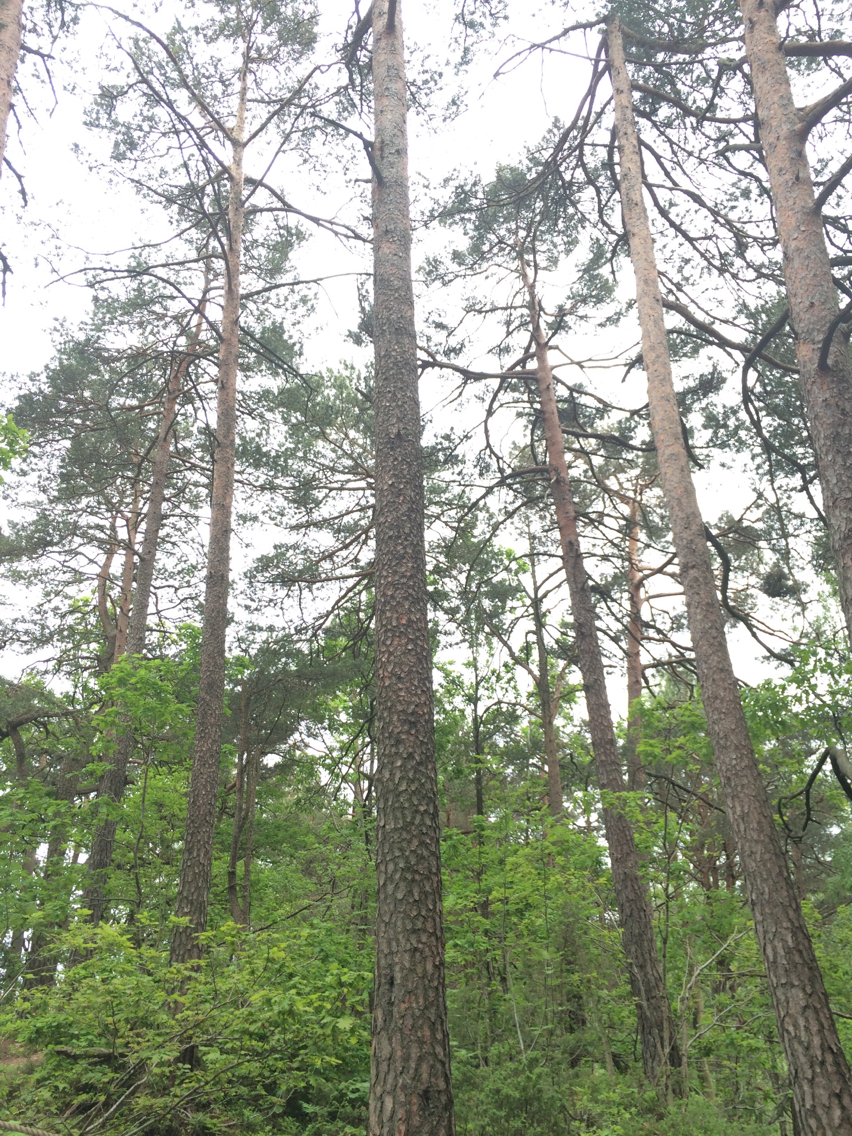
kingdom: Plantae
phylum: Tracheophyta
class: Pinopsida
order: Pinales
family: Pinaceae
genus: Pinus
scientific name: Pinus sylvestris
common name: Scots pine
